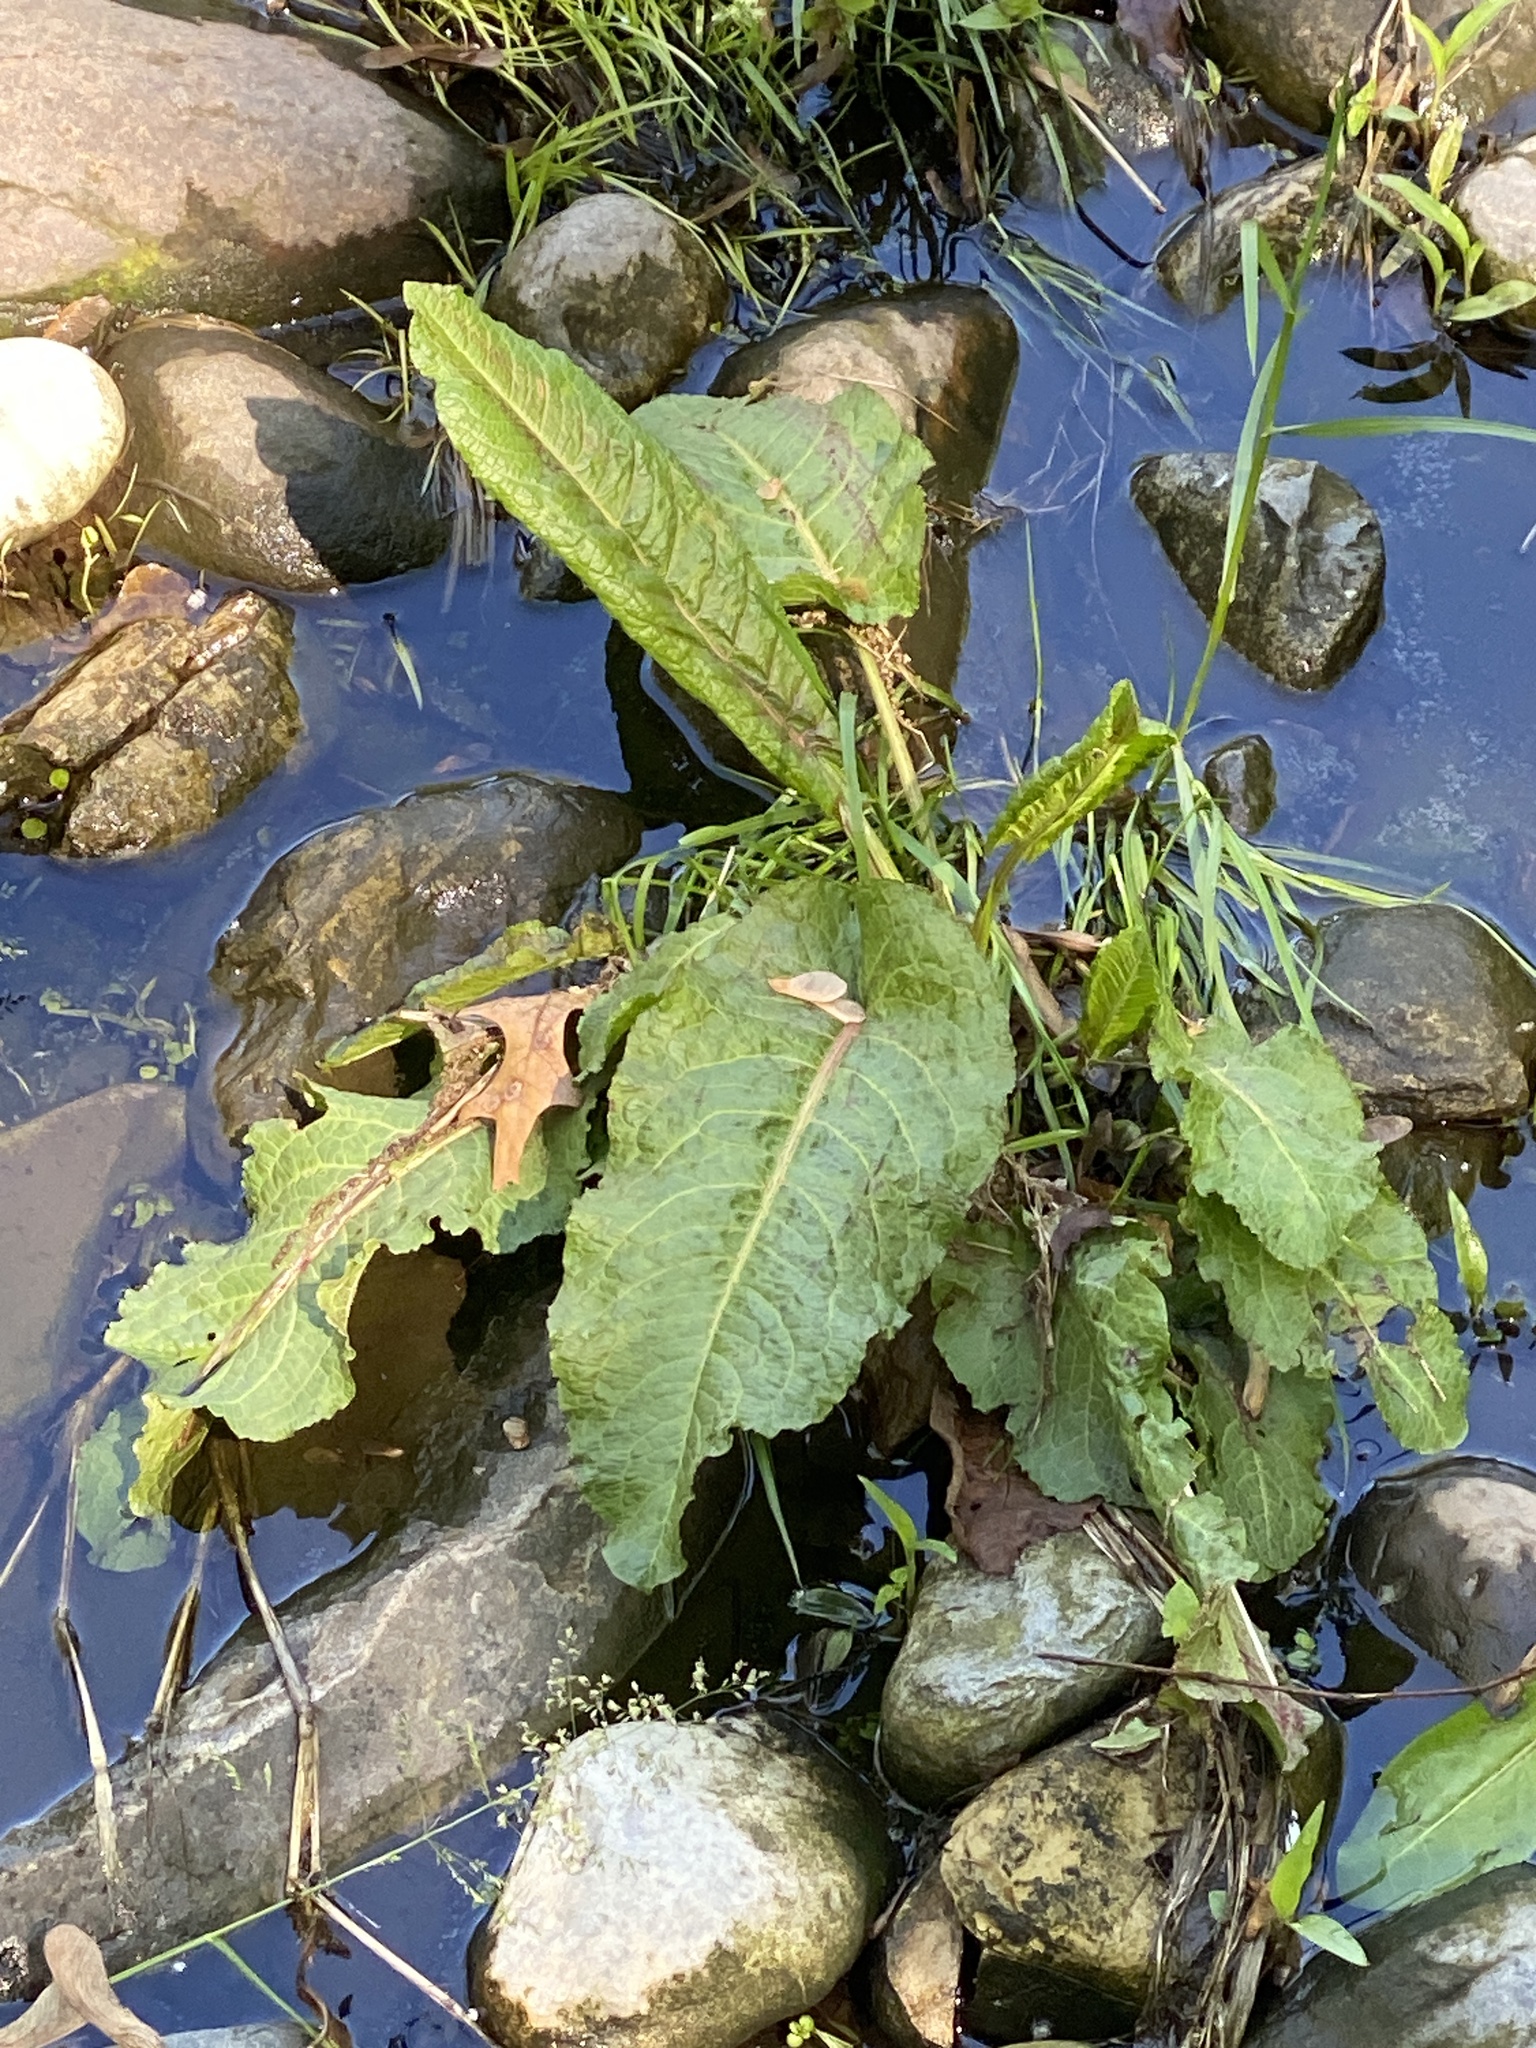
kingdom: Plantae
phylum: Tracheophyta
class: Magnoliopsida
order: Caryophyllales
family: Polygonaceae
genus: Rumex
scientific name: Rumex obtusifolius
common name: Bitter dock
